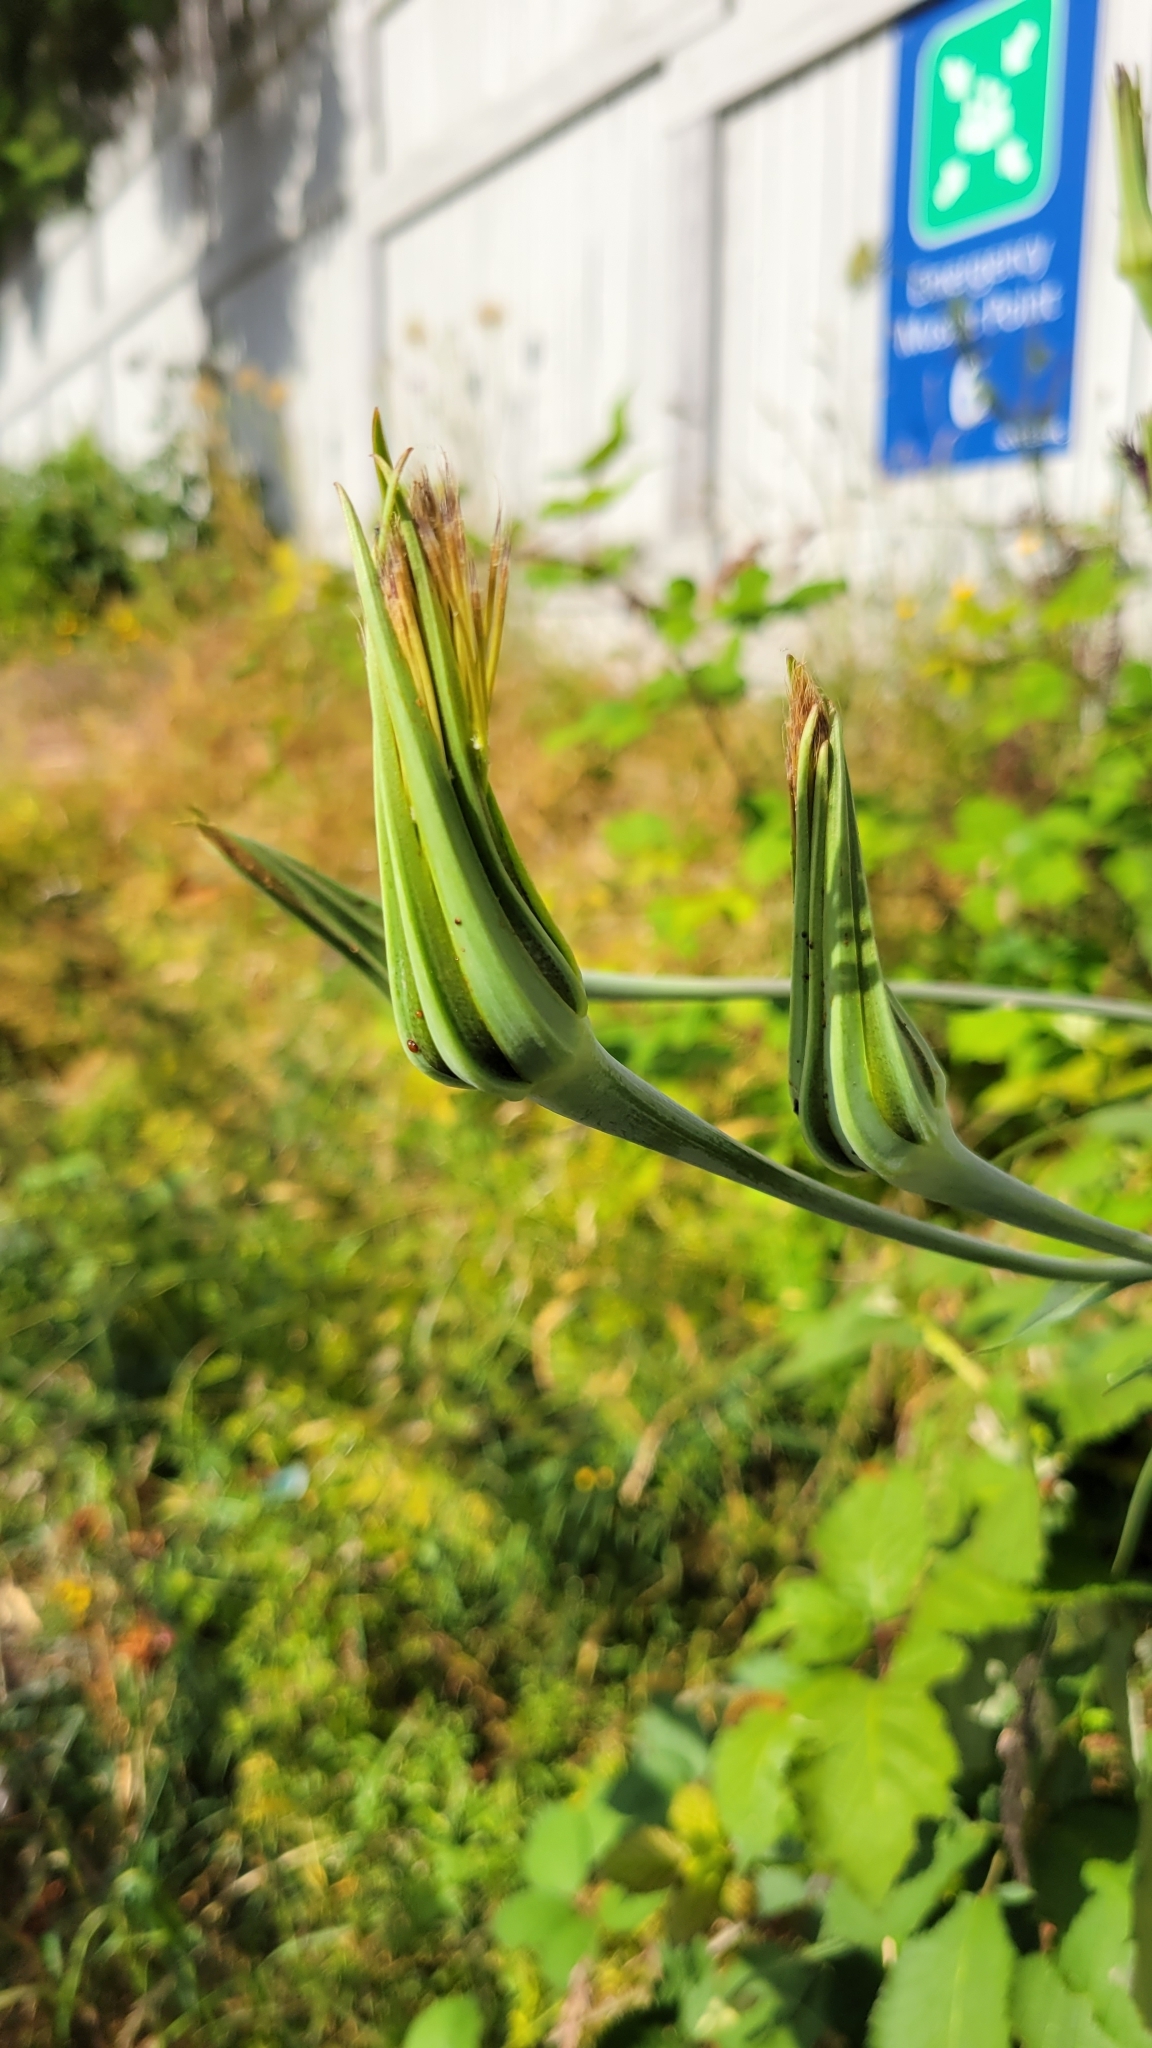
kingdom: Plantae
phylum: Tracheophyta
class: Magnoliopsida
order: Asterales
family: Asteraceae
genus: Tragopogon
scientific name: Tragopogon porrifolius
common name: Salsify
